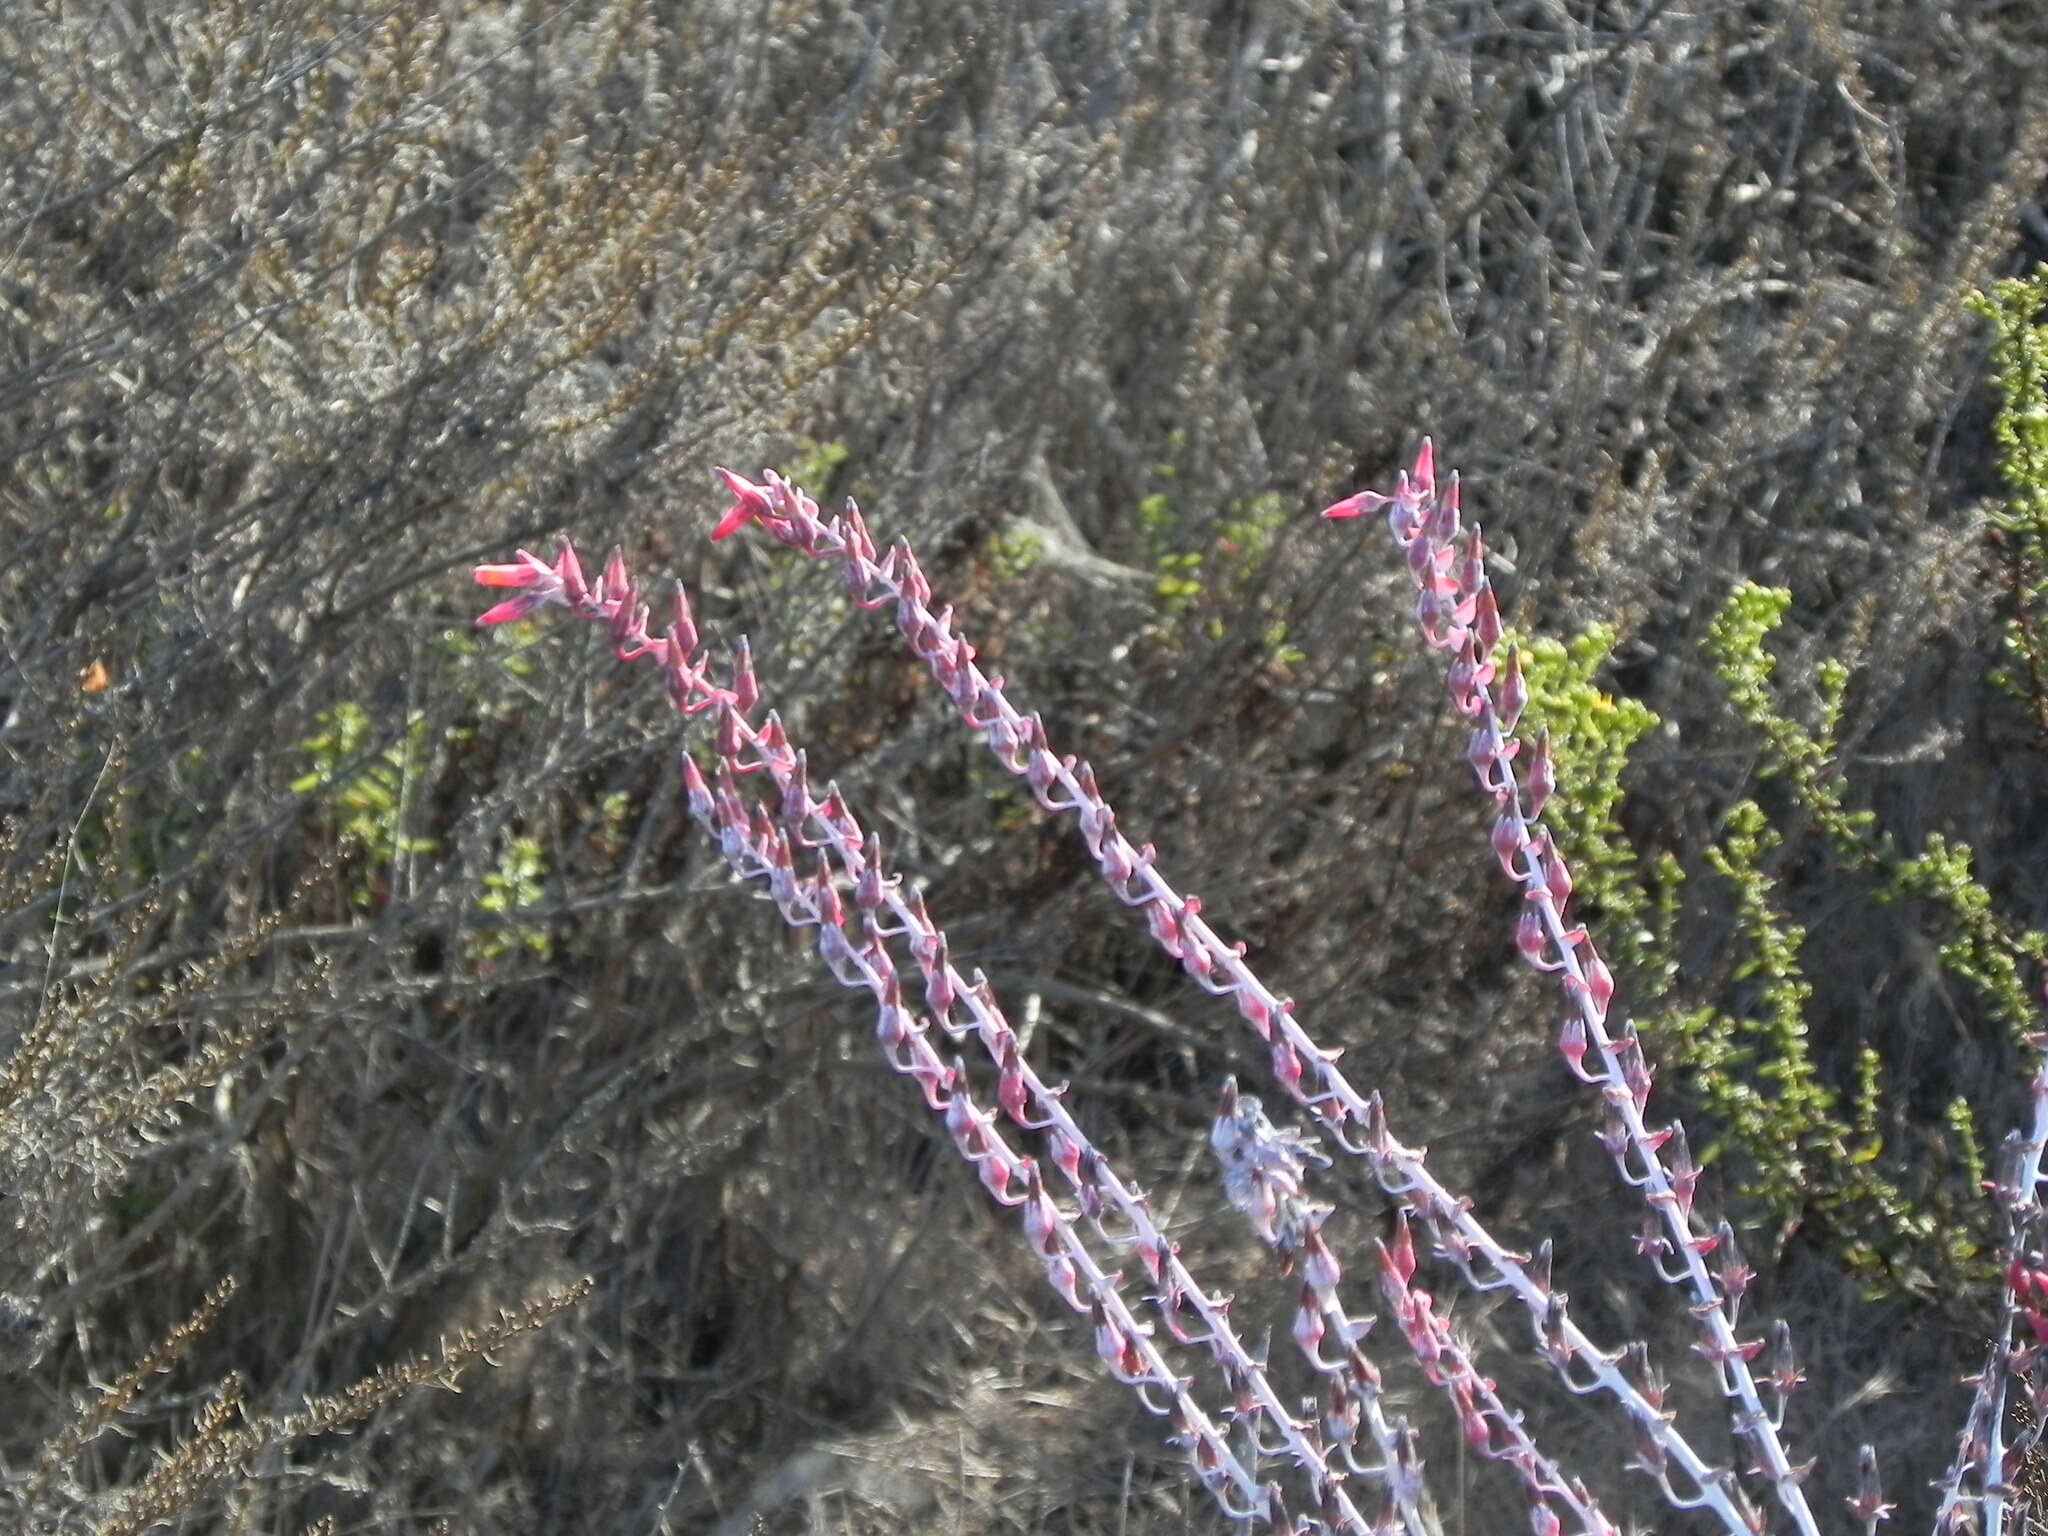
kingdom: Plantae
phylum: Tracheophyta
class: Magnoliopsida
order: Saxifragales
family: Crassulaceae
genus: Dudleya
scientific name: Dudleya pulverulenta
